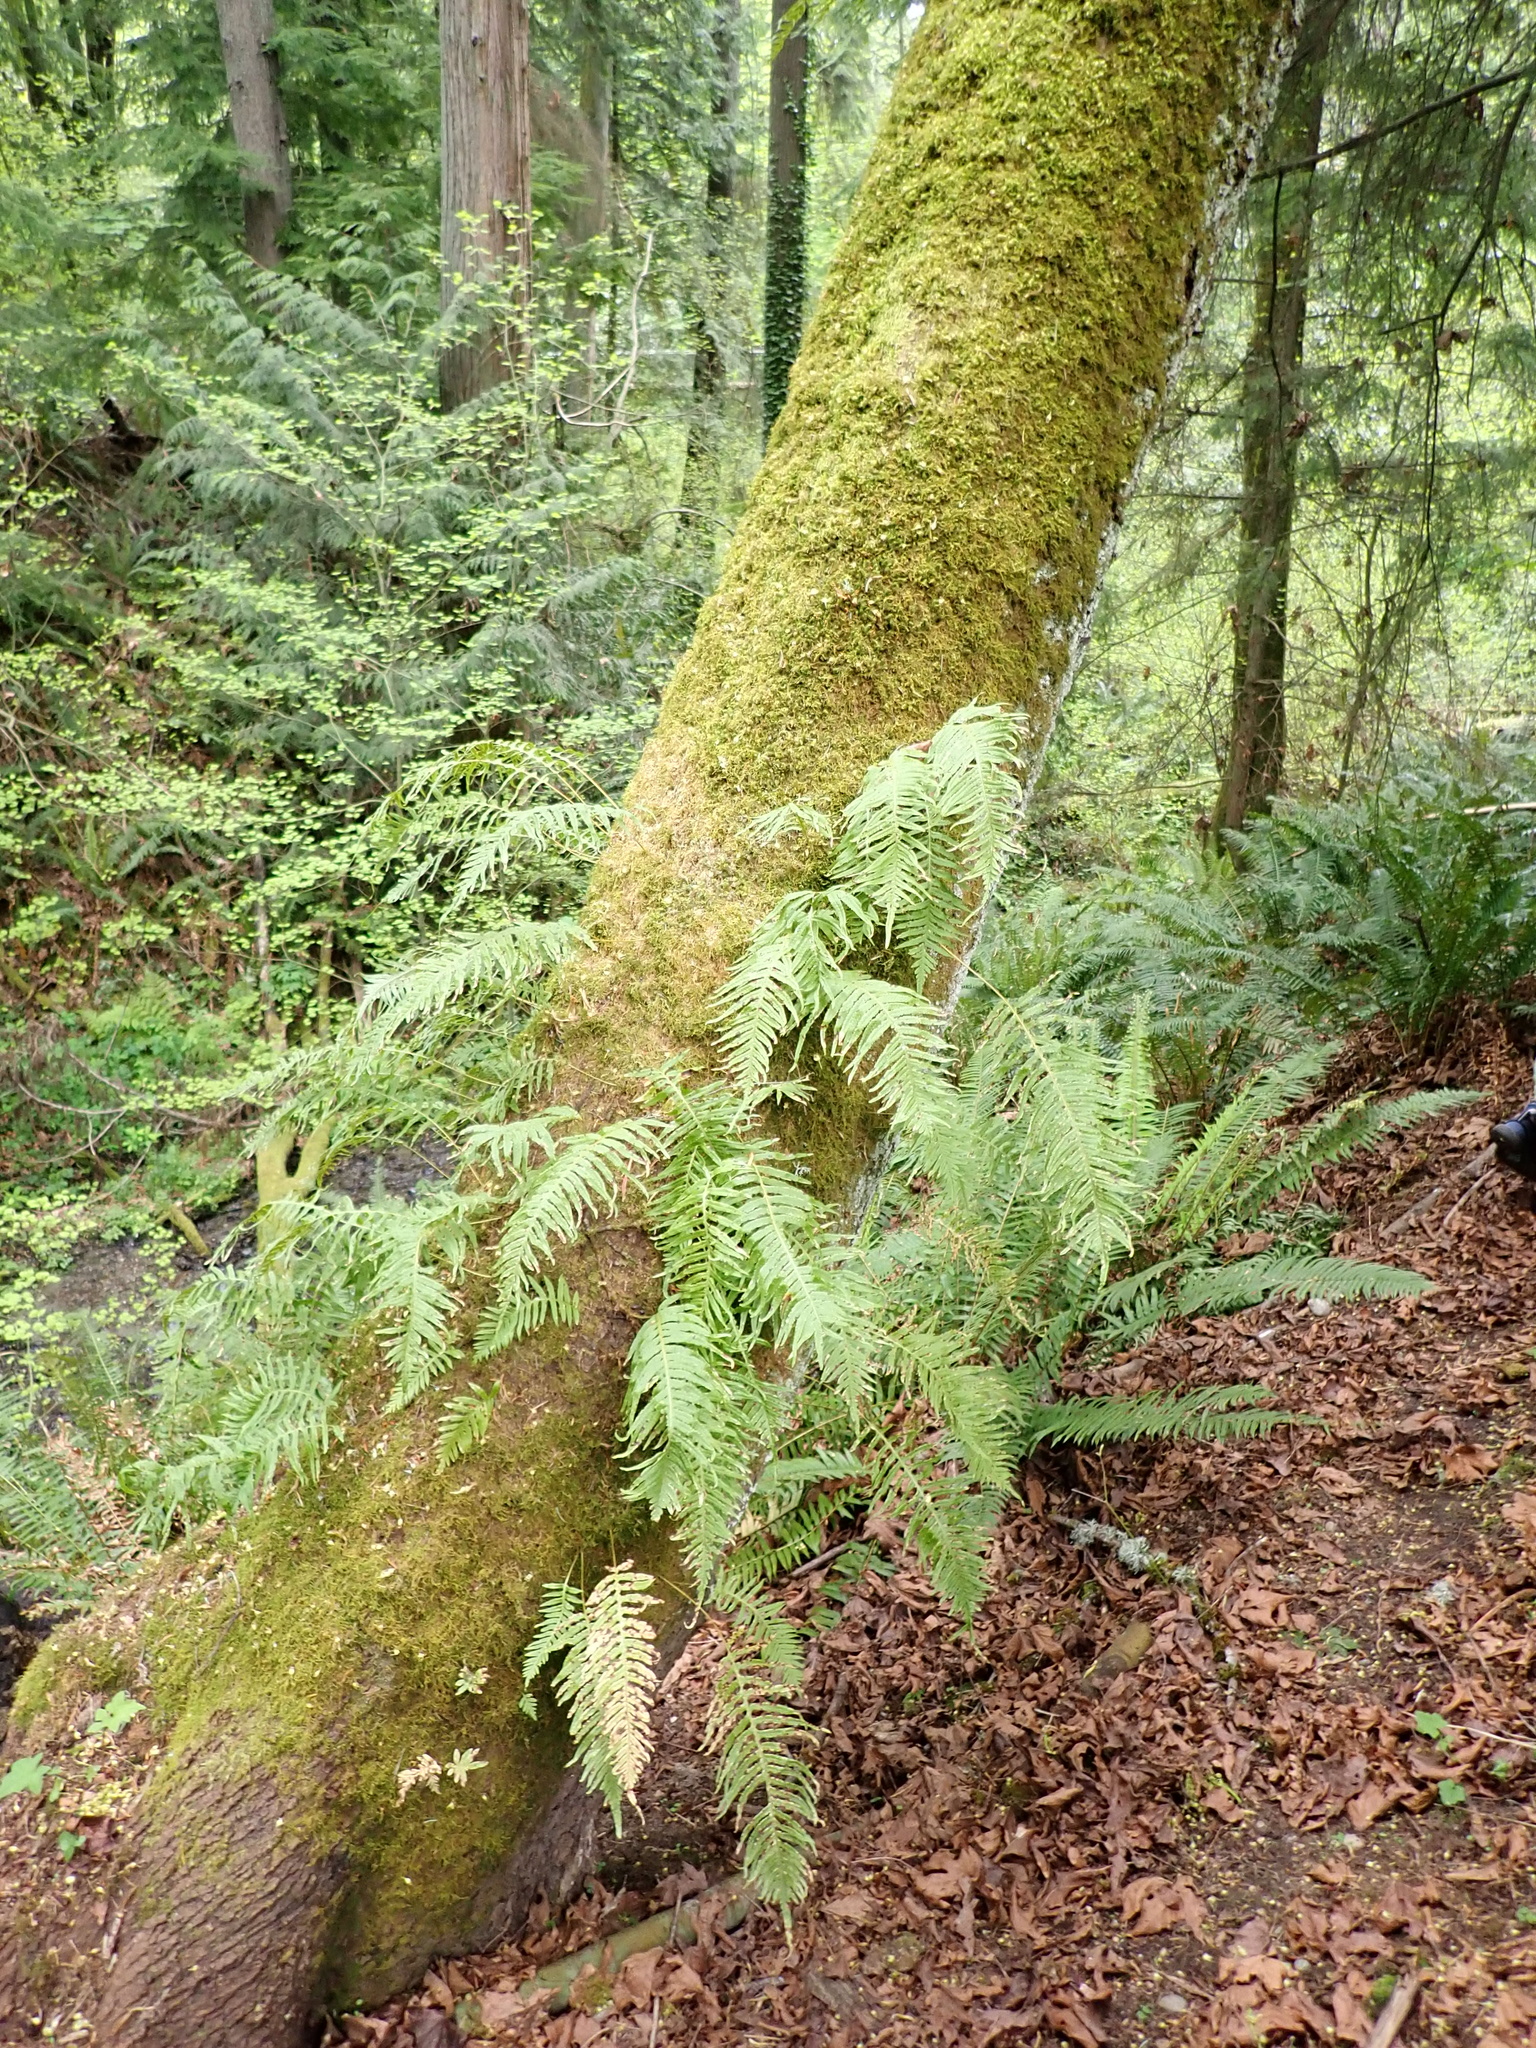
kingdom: Plantae
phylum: Tracheophyta
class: Polypodiopsida
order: Polypodiales
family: Polypodiaceae
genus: Polypodium
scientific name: Polypodium glycyrrhiza
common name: Licorice fern
